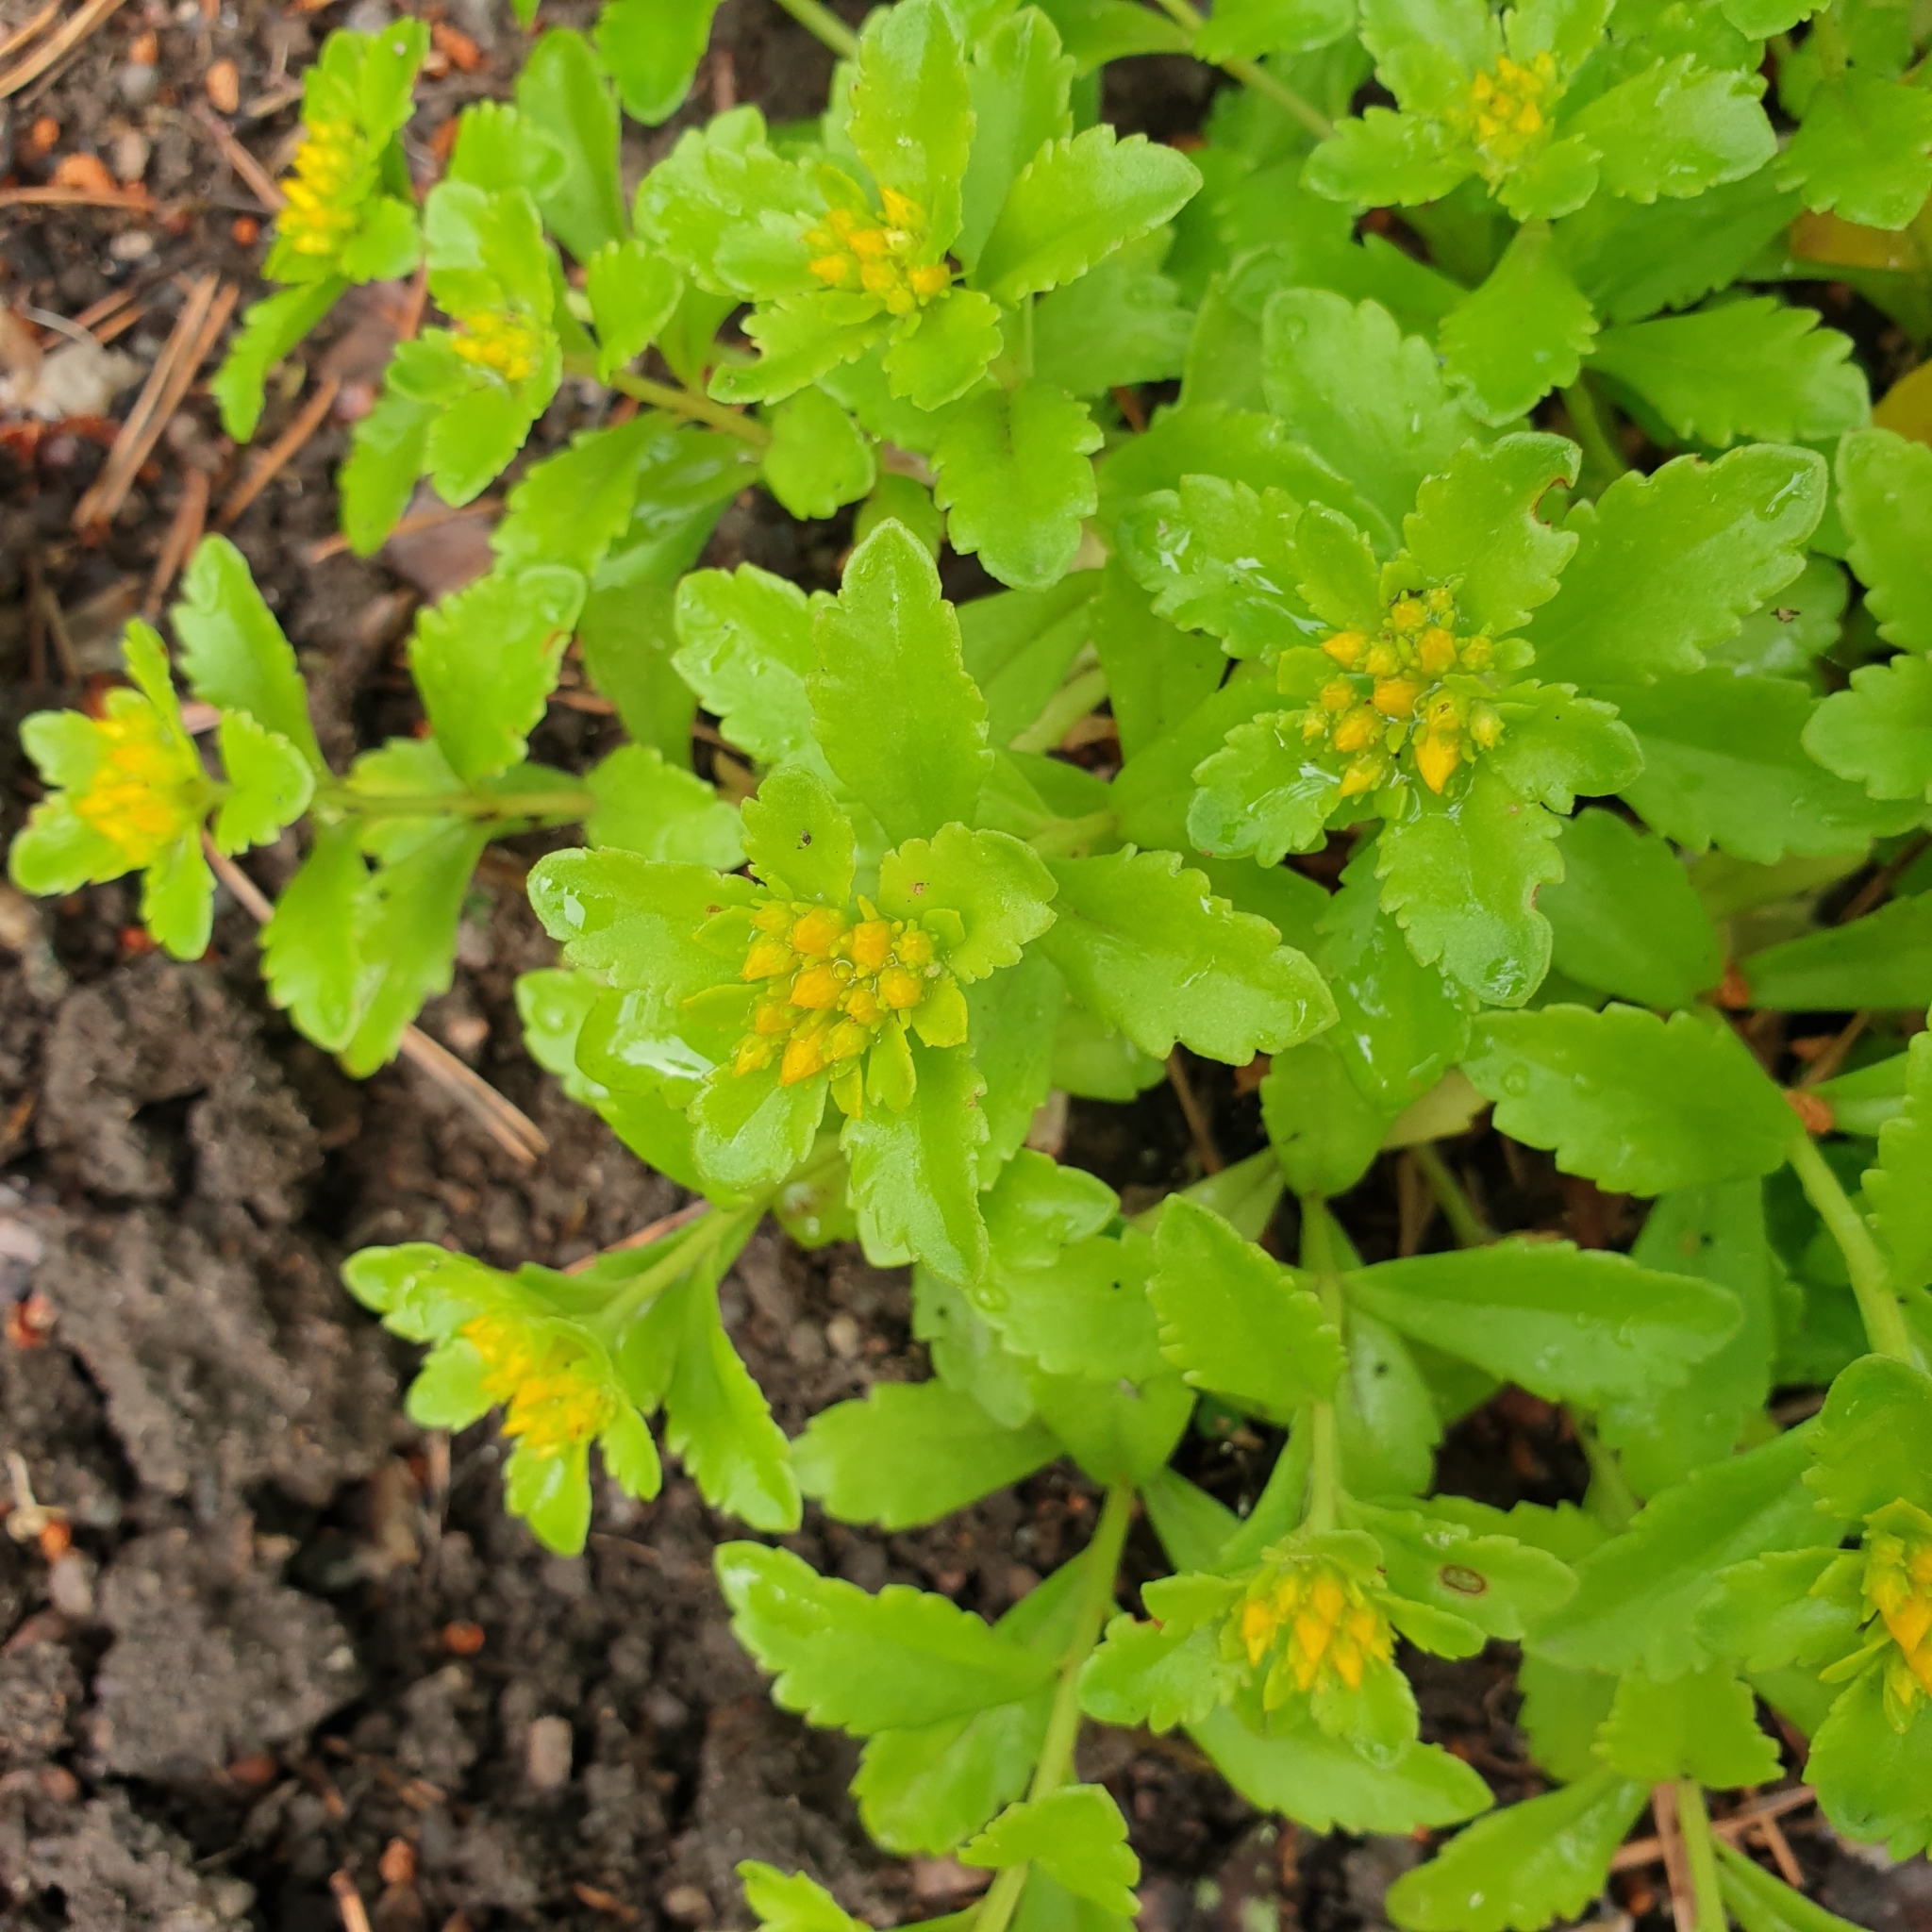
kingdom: Plantae
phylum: Tracheophyta
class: Magnoliopsida
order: Saxifragales
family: Crassulaceae
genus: Phedimus
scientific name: Phedimus ellacombeanus
